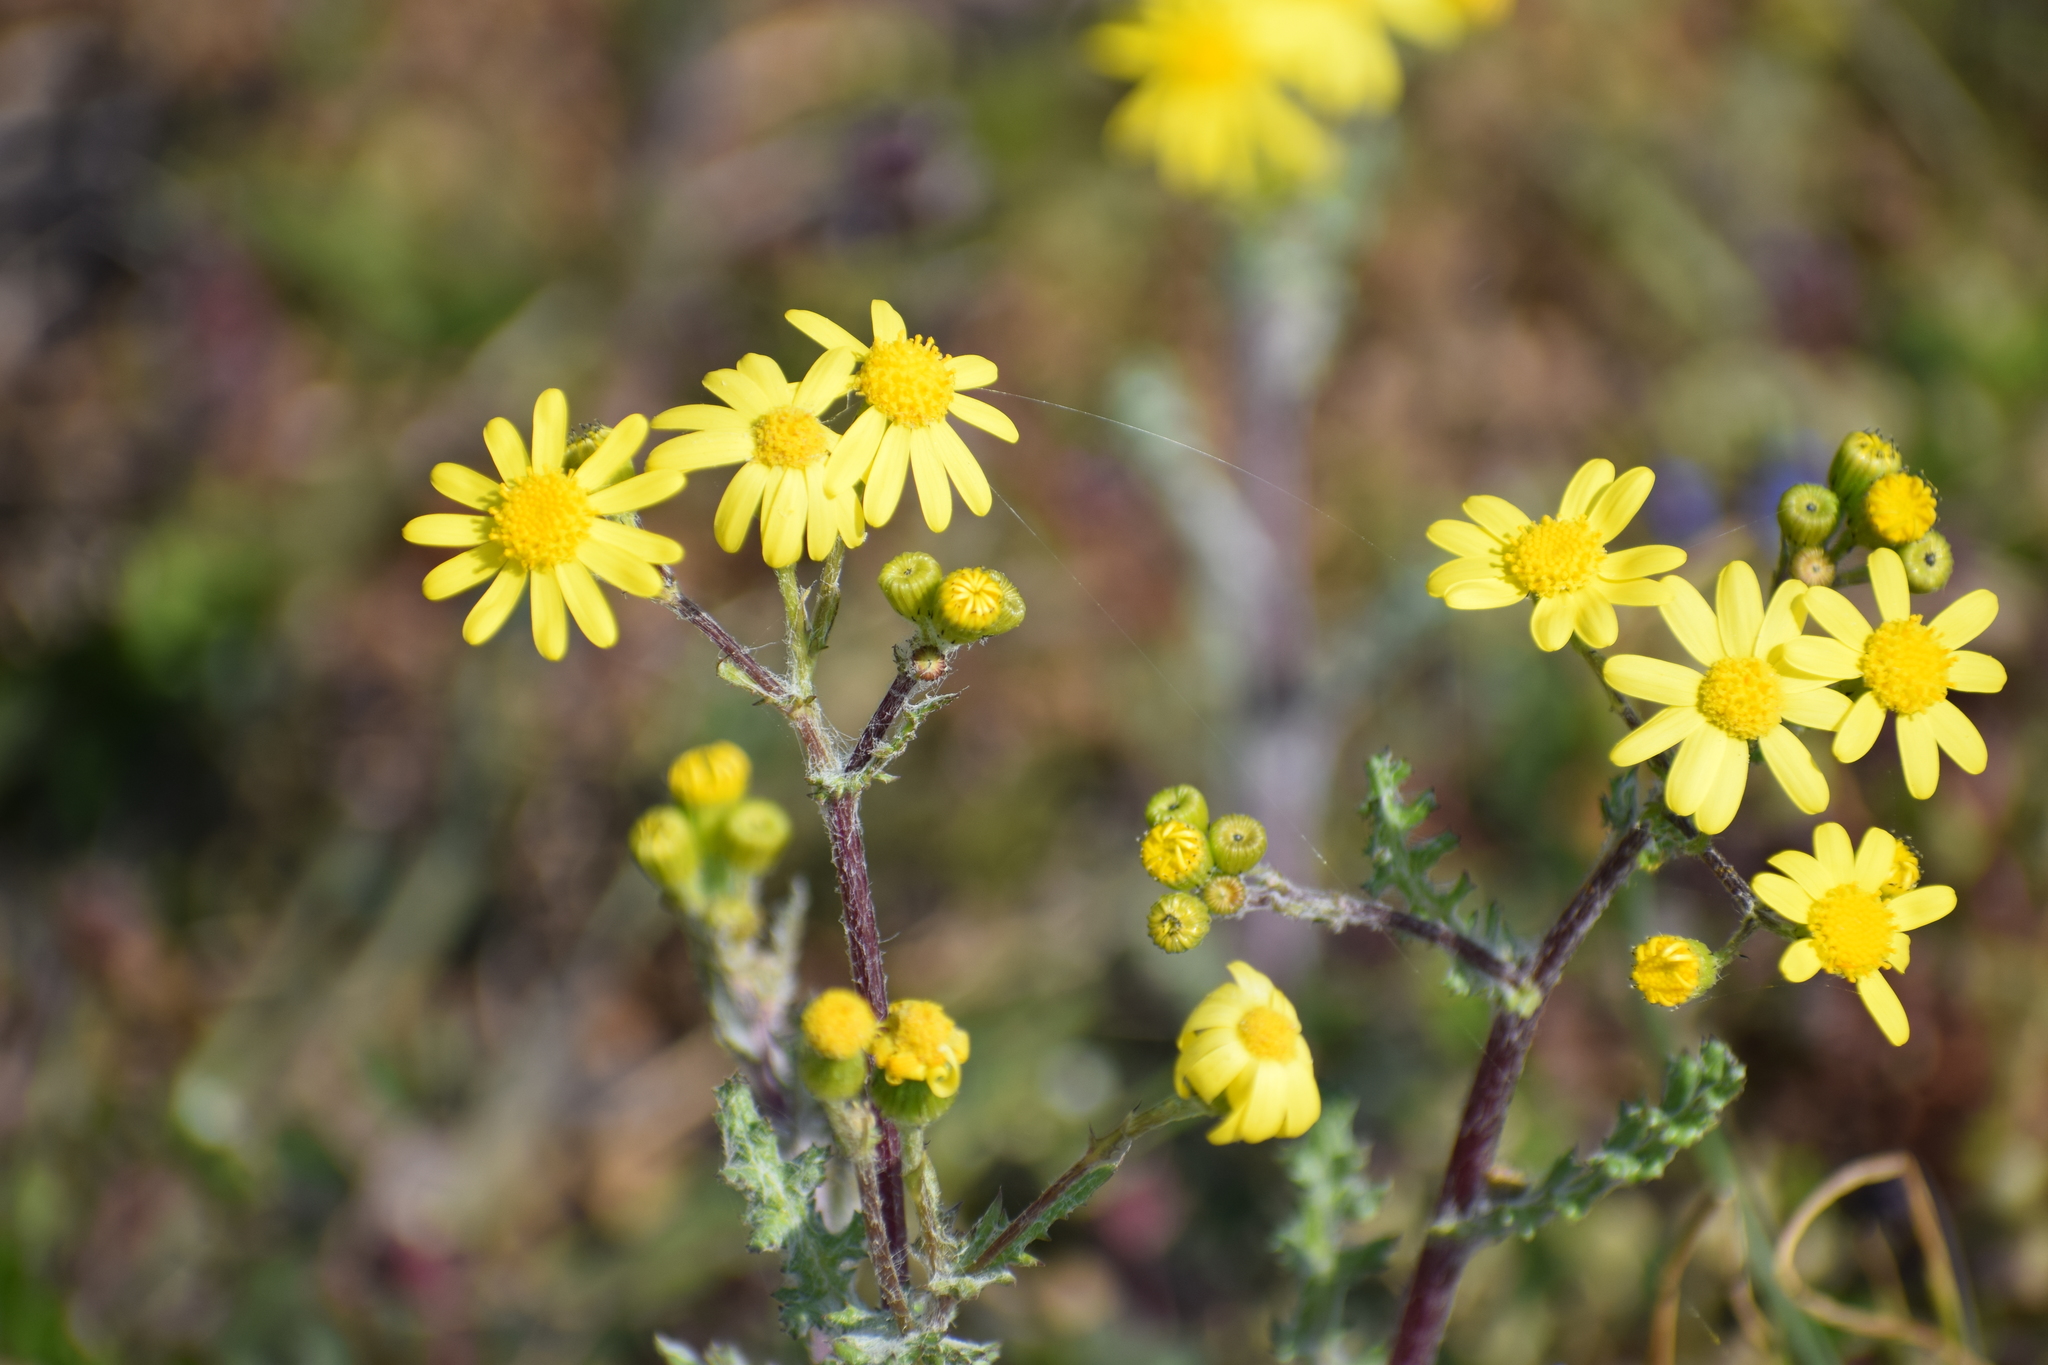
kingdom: Plantae
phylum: Tracheophyta
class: Magnoliopsida
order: Asterales
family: Asteraceae
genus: Senecio
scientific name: Senecio vulgaris
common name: Old-man-in-the-spring
